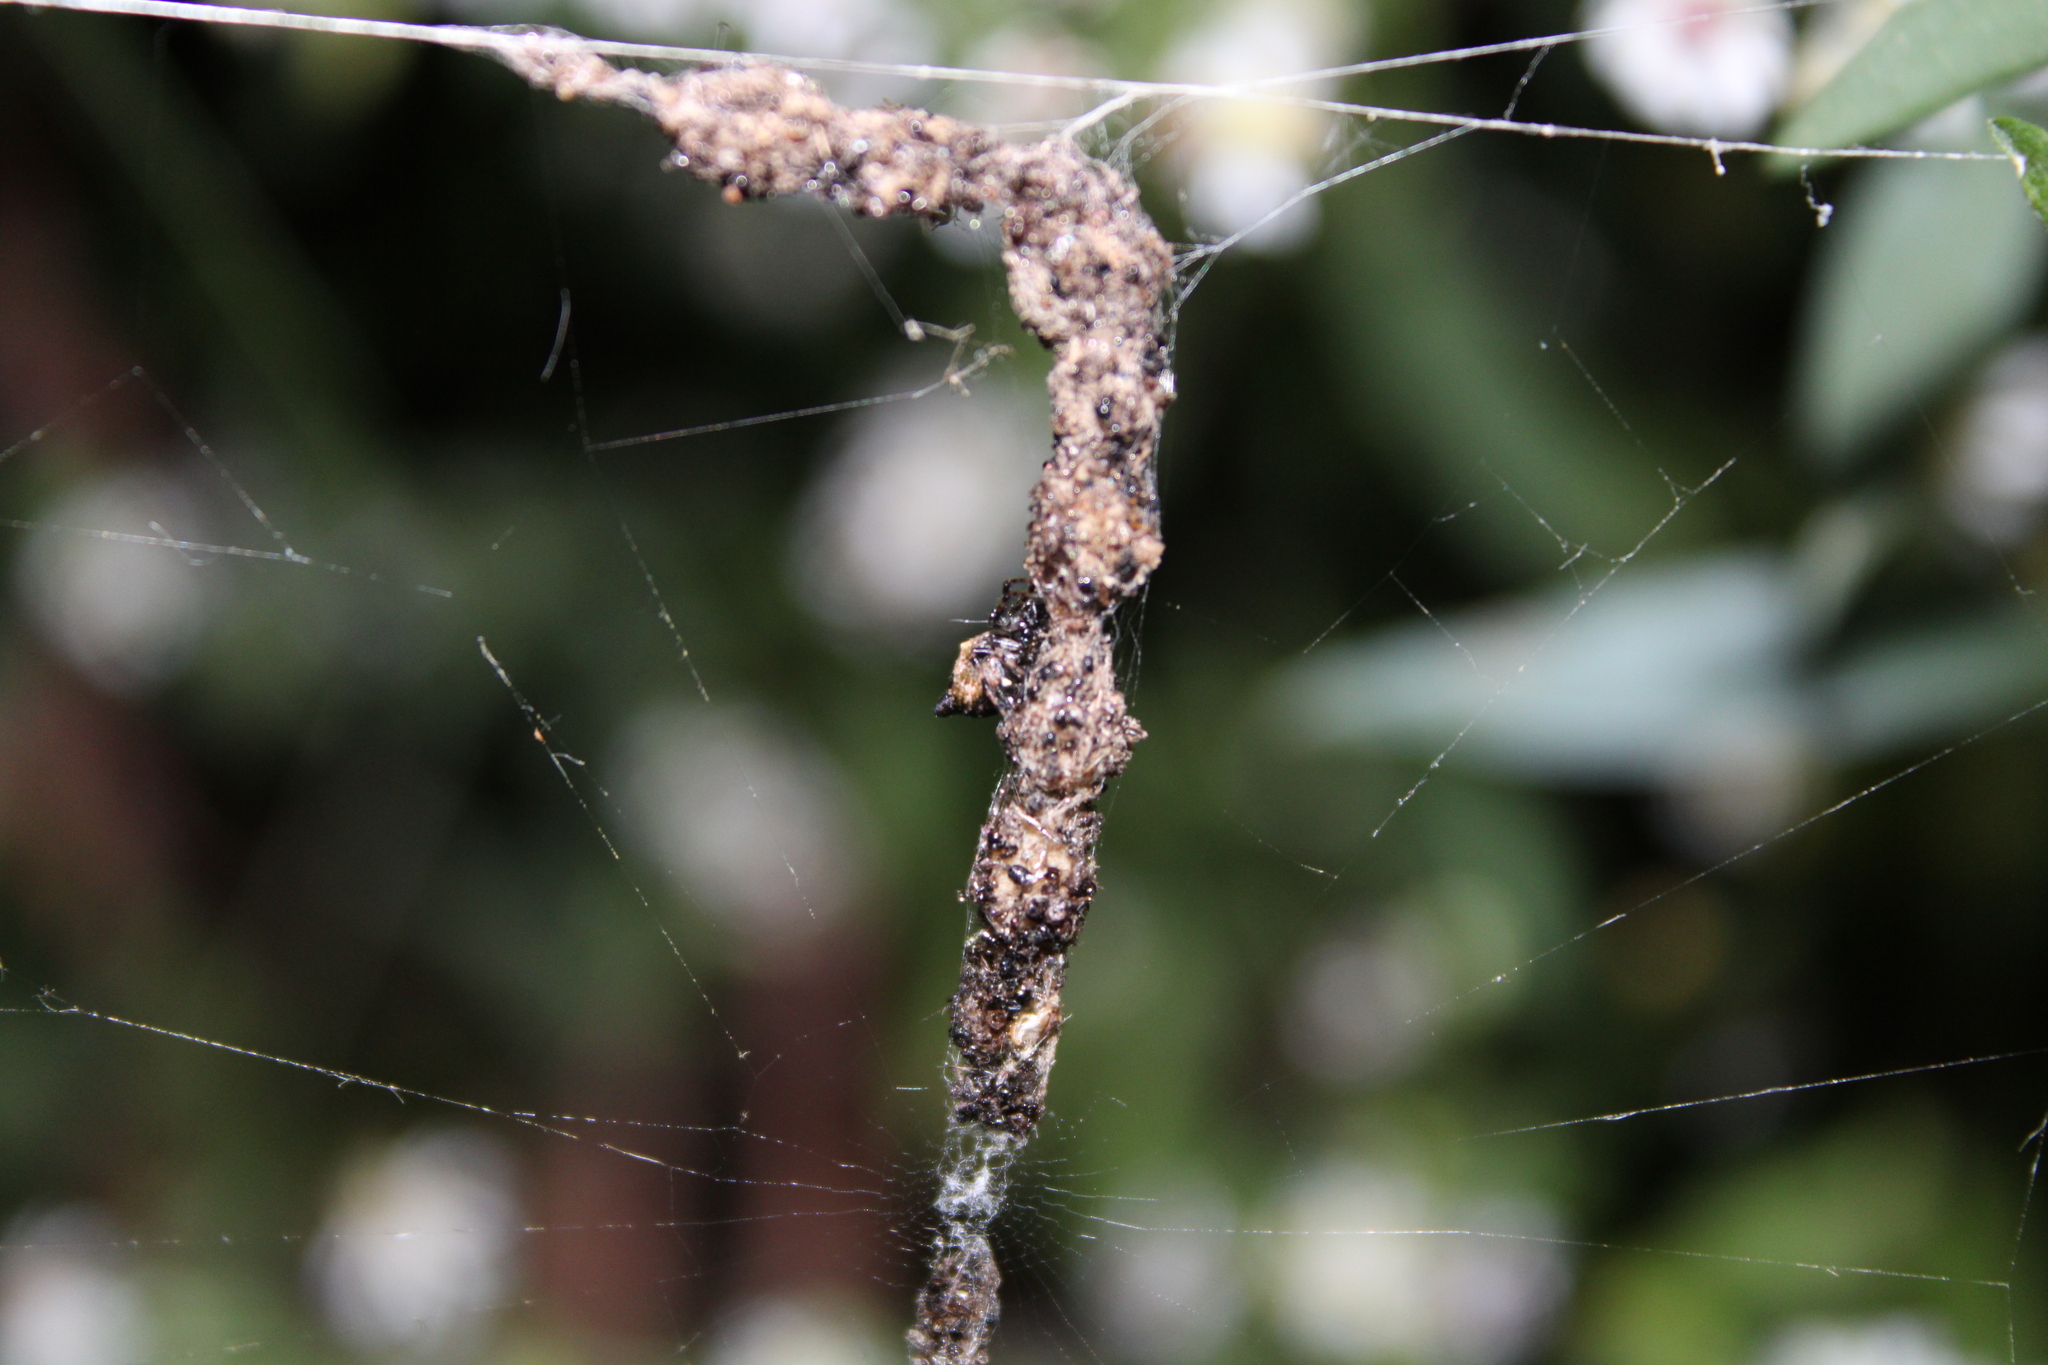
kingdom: Animalia
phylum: Arthropoda
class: Arachnida
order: Araneae
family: Araneidae
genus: Cyclosa
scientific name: Cyclosa turbinata
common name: Orb weavers
